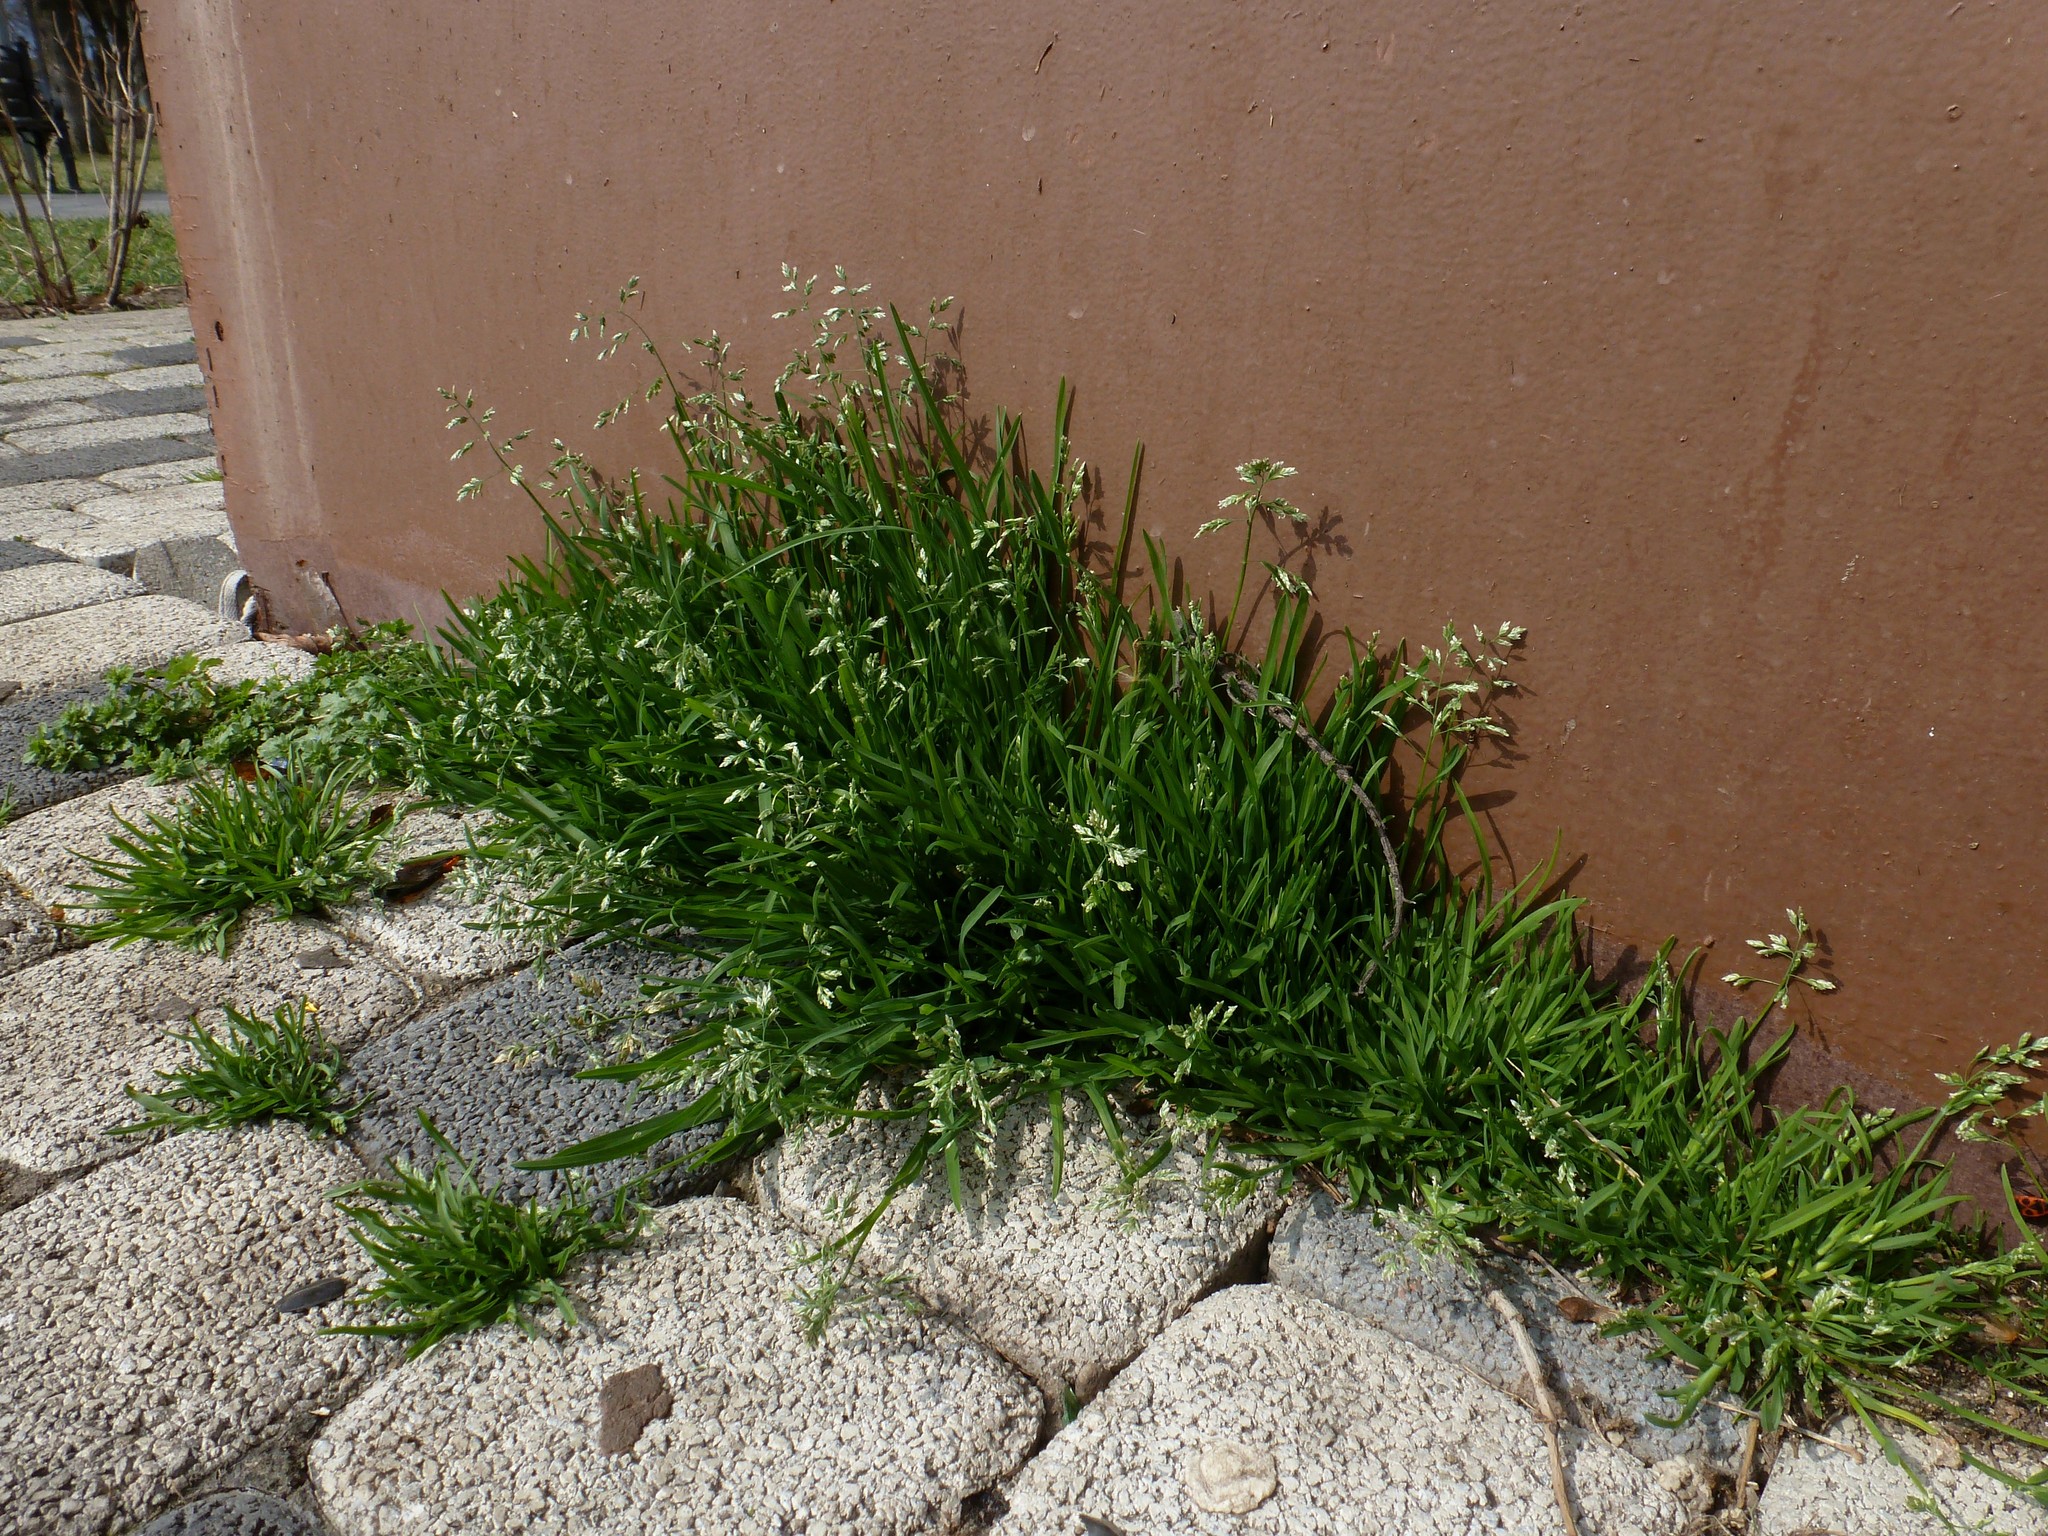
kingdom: Plantae
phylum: Tracheophyta
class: Liliopsida
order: Poales
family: Poaceae
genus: Poa
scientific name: Poa annua
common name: Annual bluegrass
